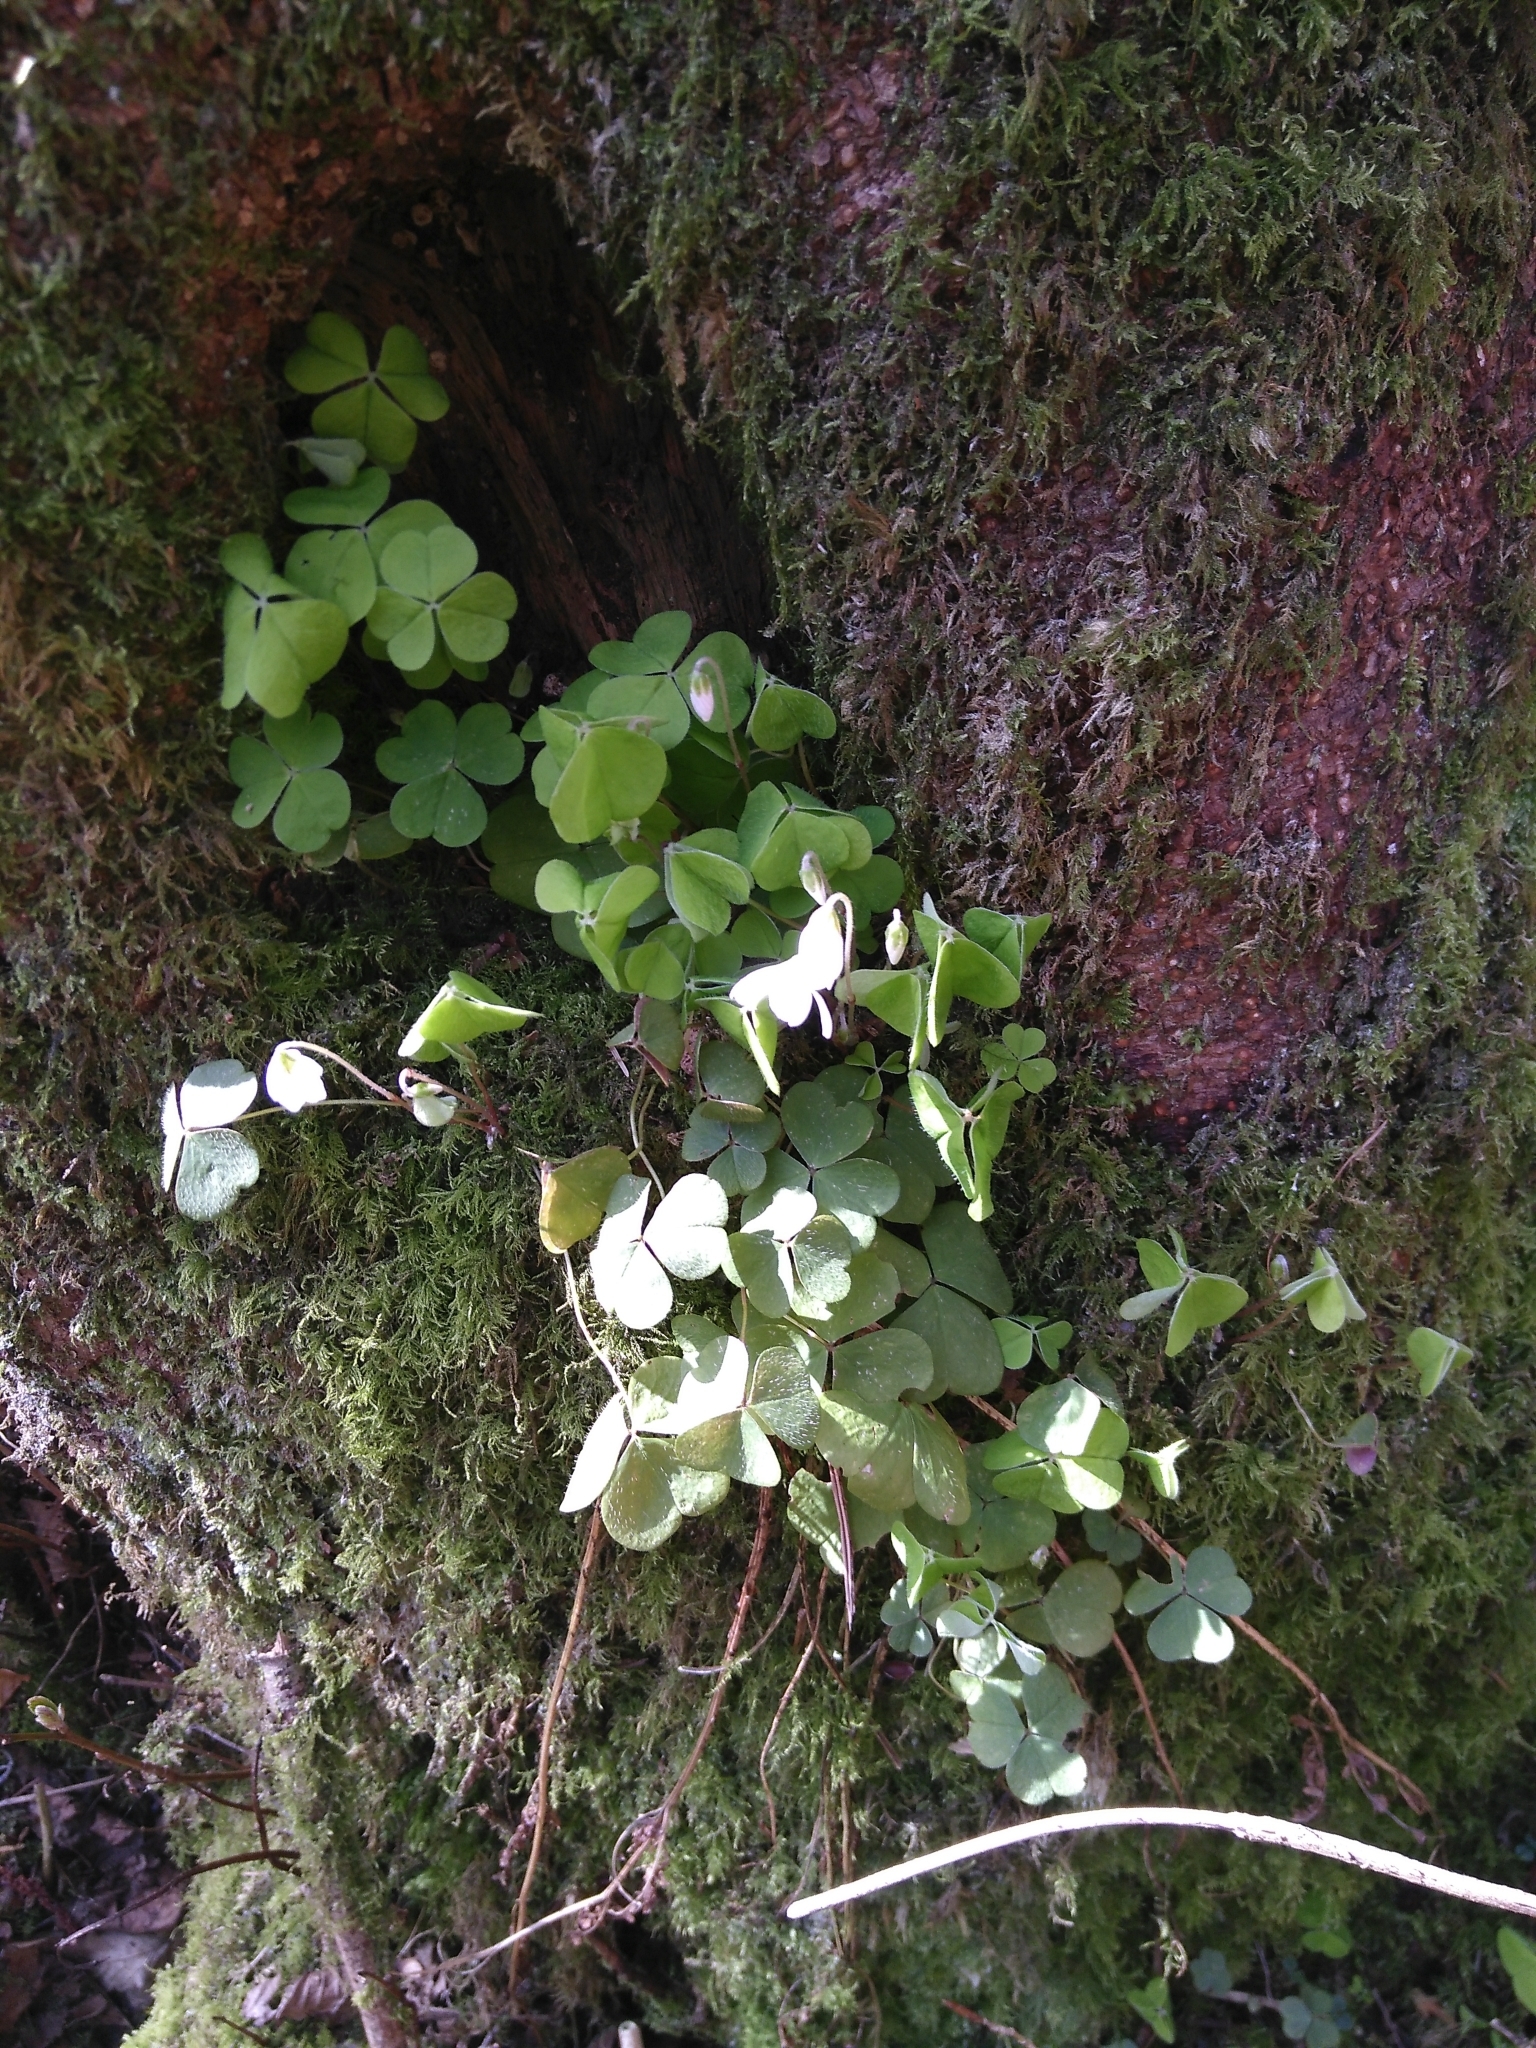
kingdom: Plantae
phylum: Tracheophyta
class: Magnoliopsida
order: Oxalidales
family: Oxalidaceae
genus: Oxalis
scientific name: Oxalis acetosella
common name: Wood-sorrel
